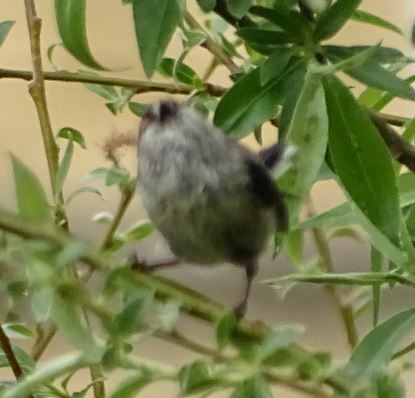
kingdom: Animalia
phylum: Chordata
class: Aves
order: Passeriformes
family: Aegithalidae
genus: Aegithalos
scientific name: Aegithalos caudatus
